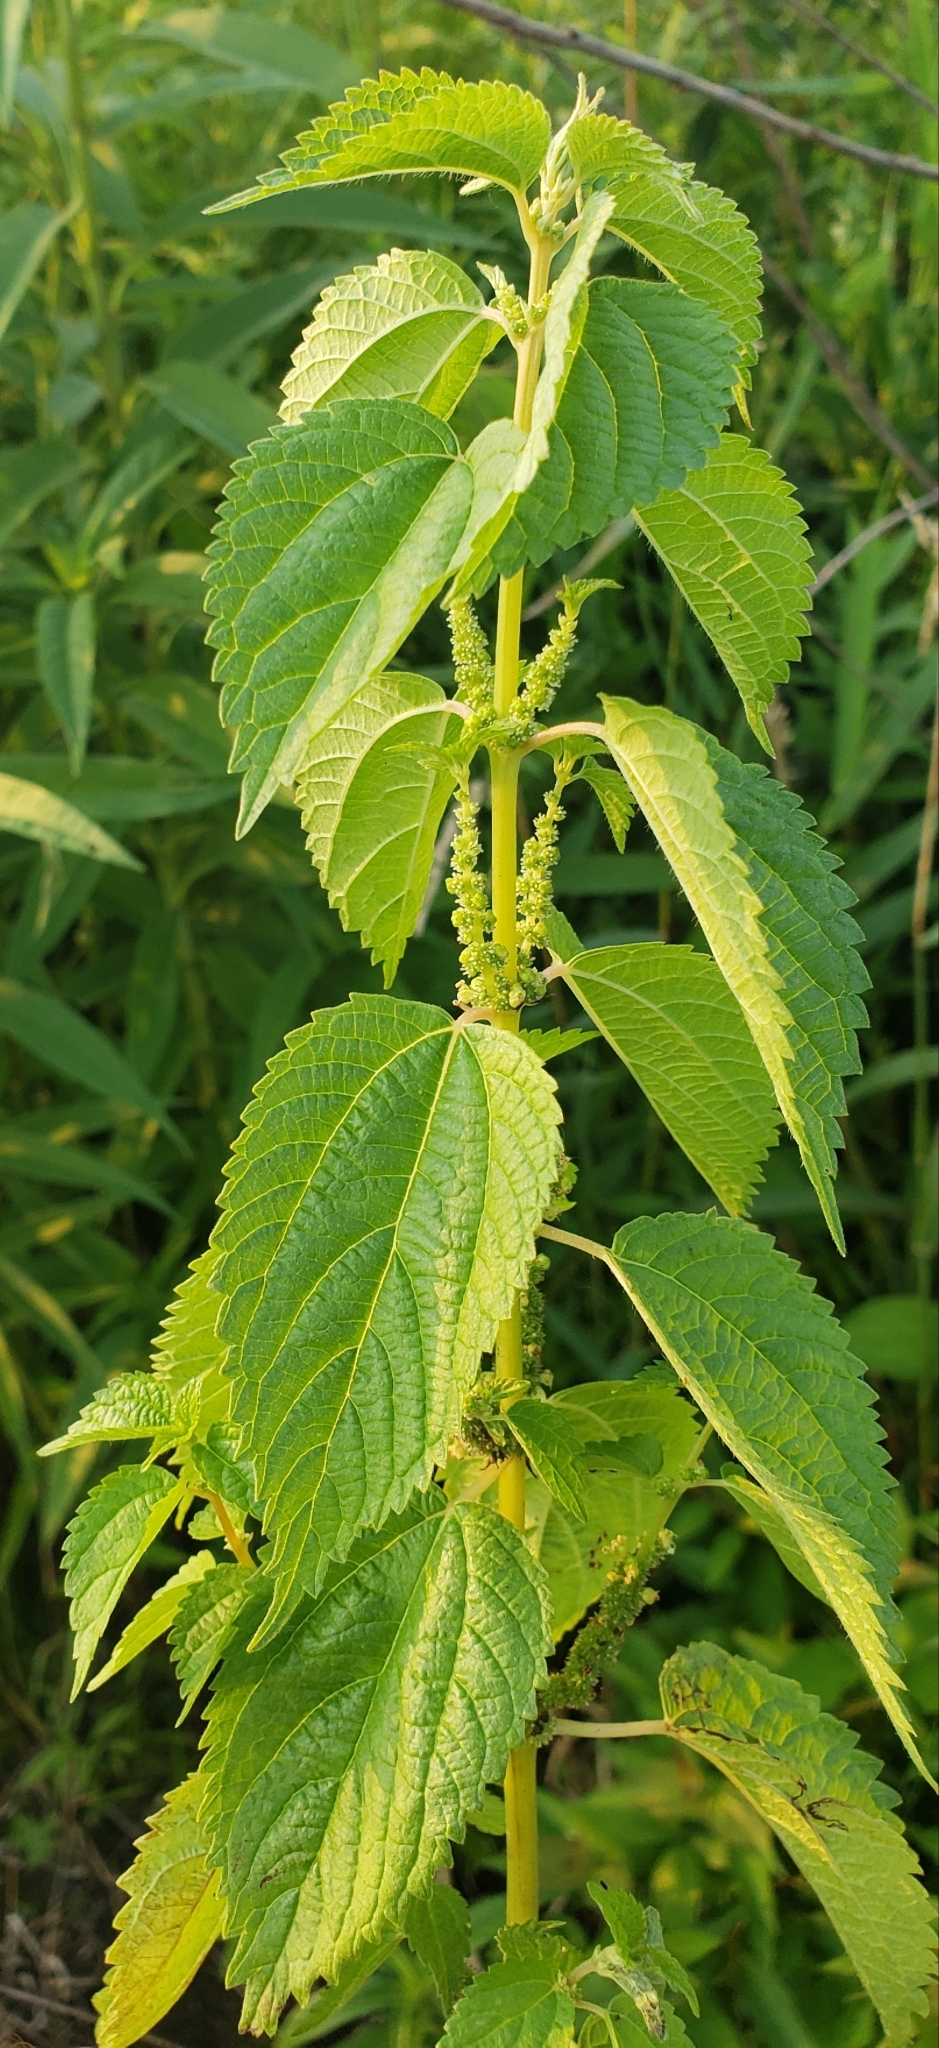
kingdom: Plantae
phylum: Tracheophyta
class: Magnoliopsida
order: Rosales
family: Urticaceae
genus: Boehmeria
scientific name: Boehmeria cylindrica
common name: Bog-hemp
